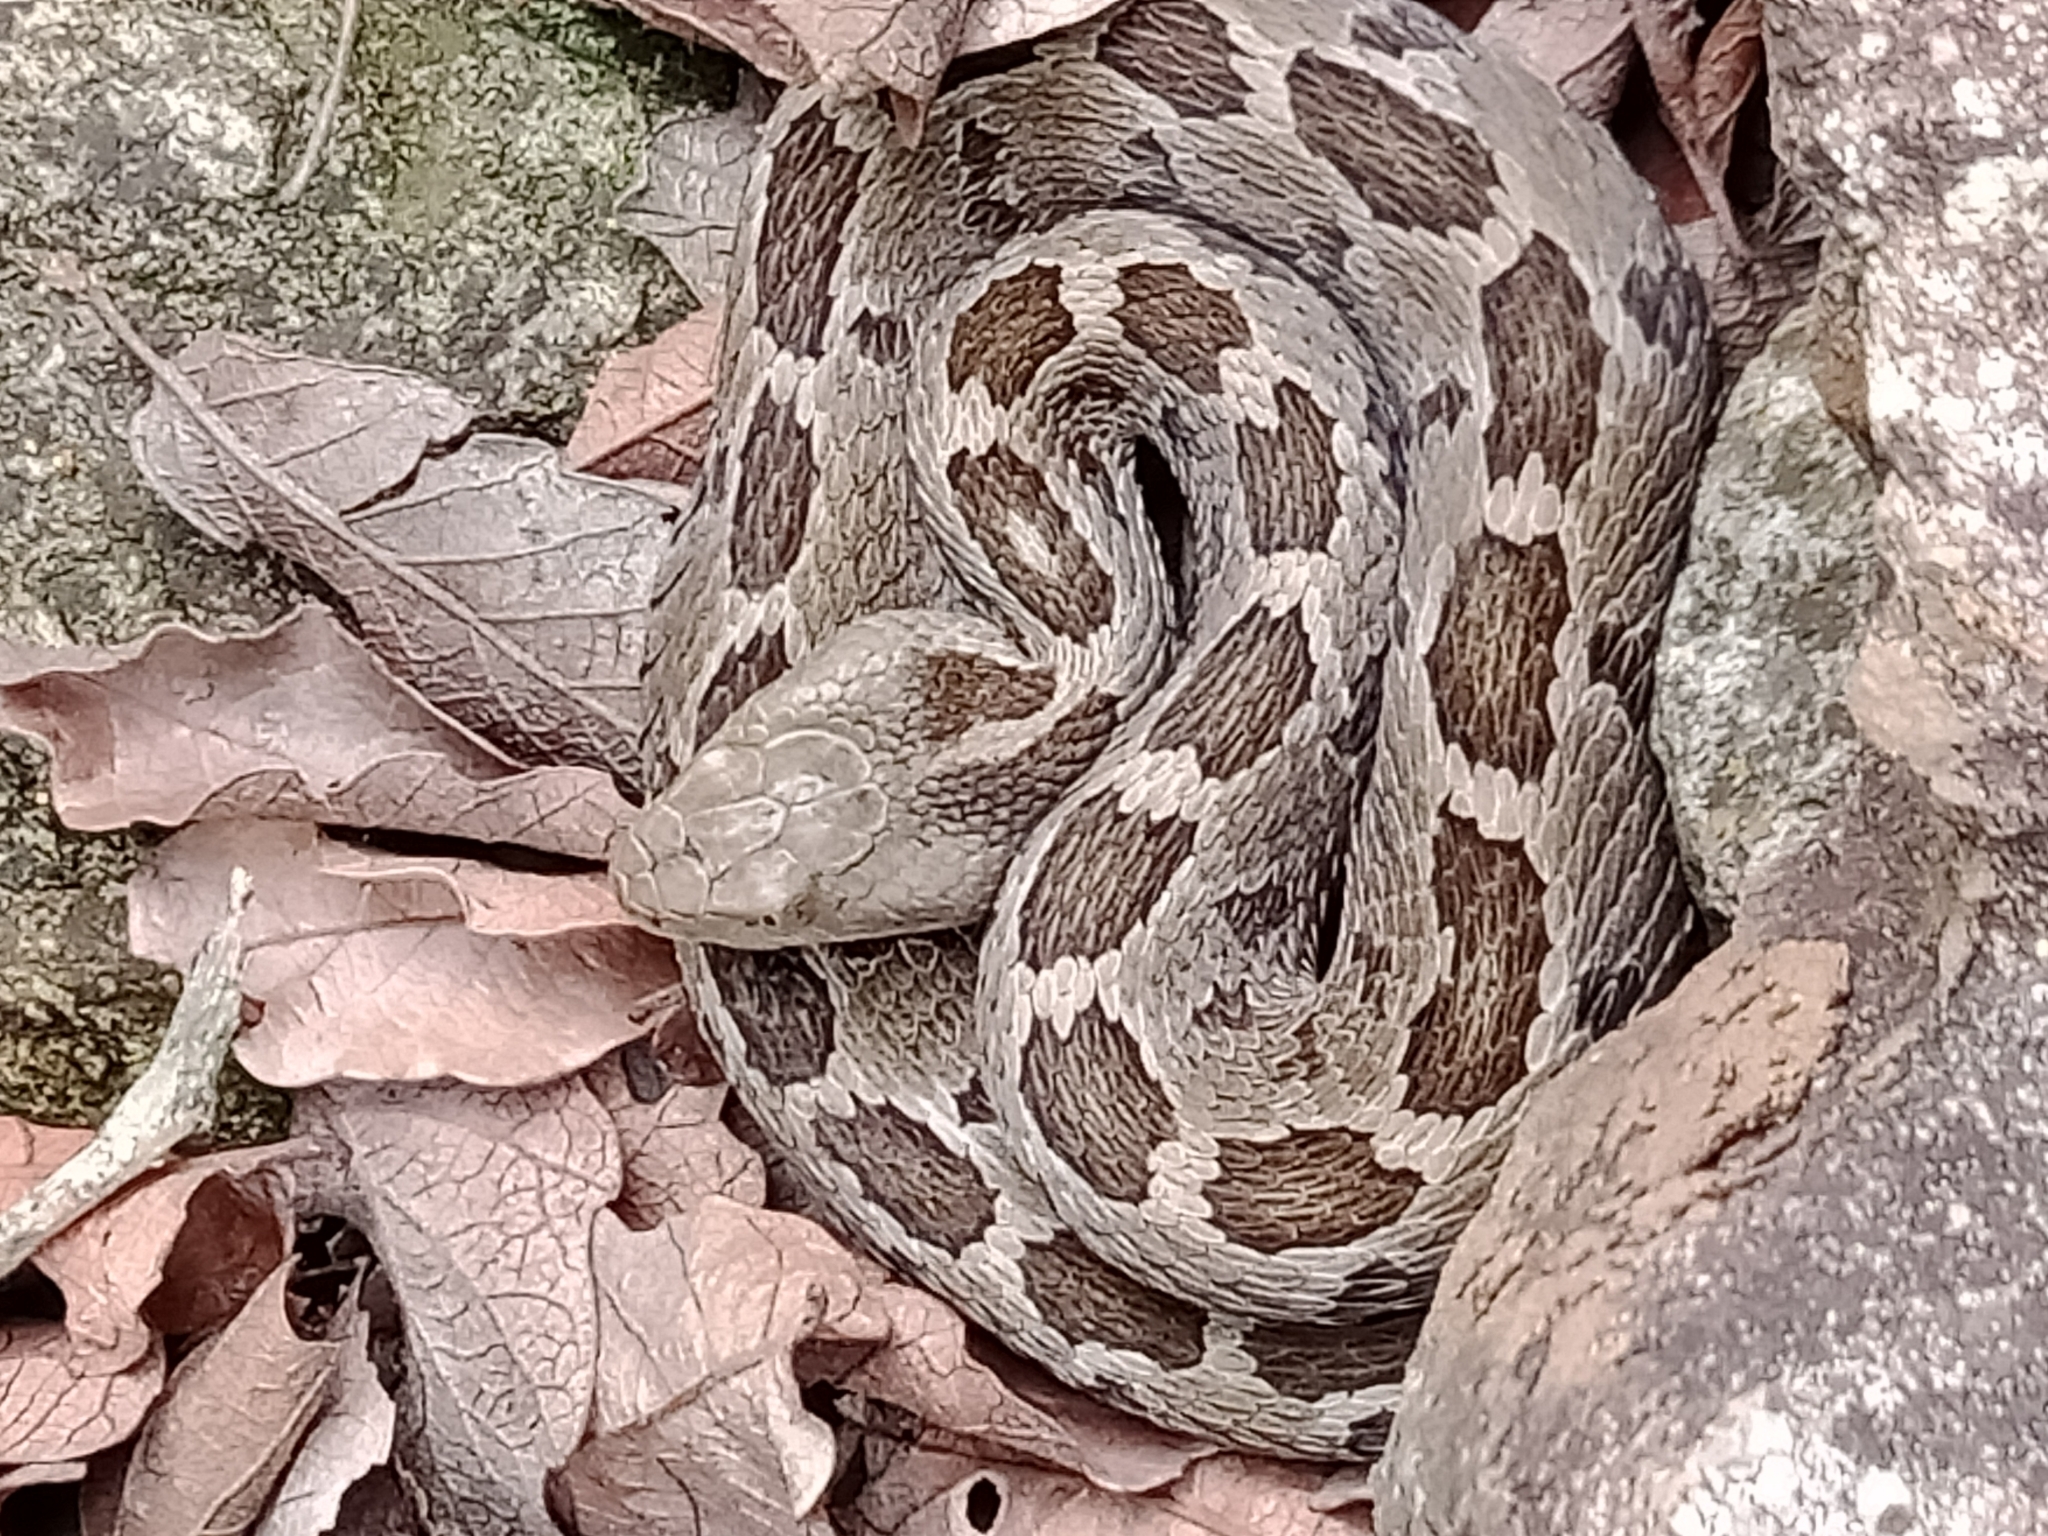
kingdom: Animalia
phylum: Chordata
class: Squamata
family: Viperidae
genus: Crotalus
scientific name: Crotalus ravus
